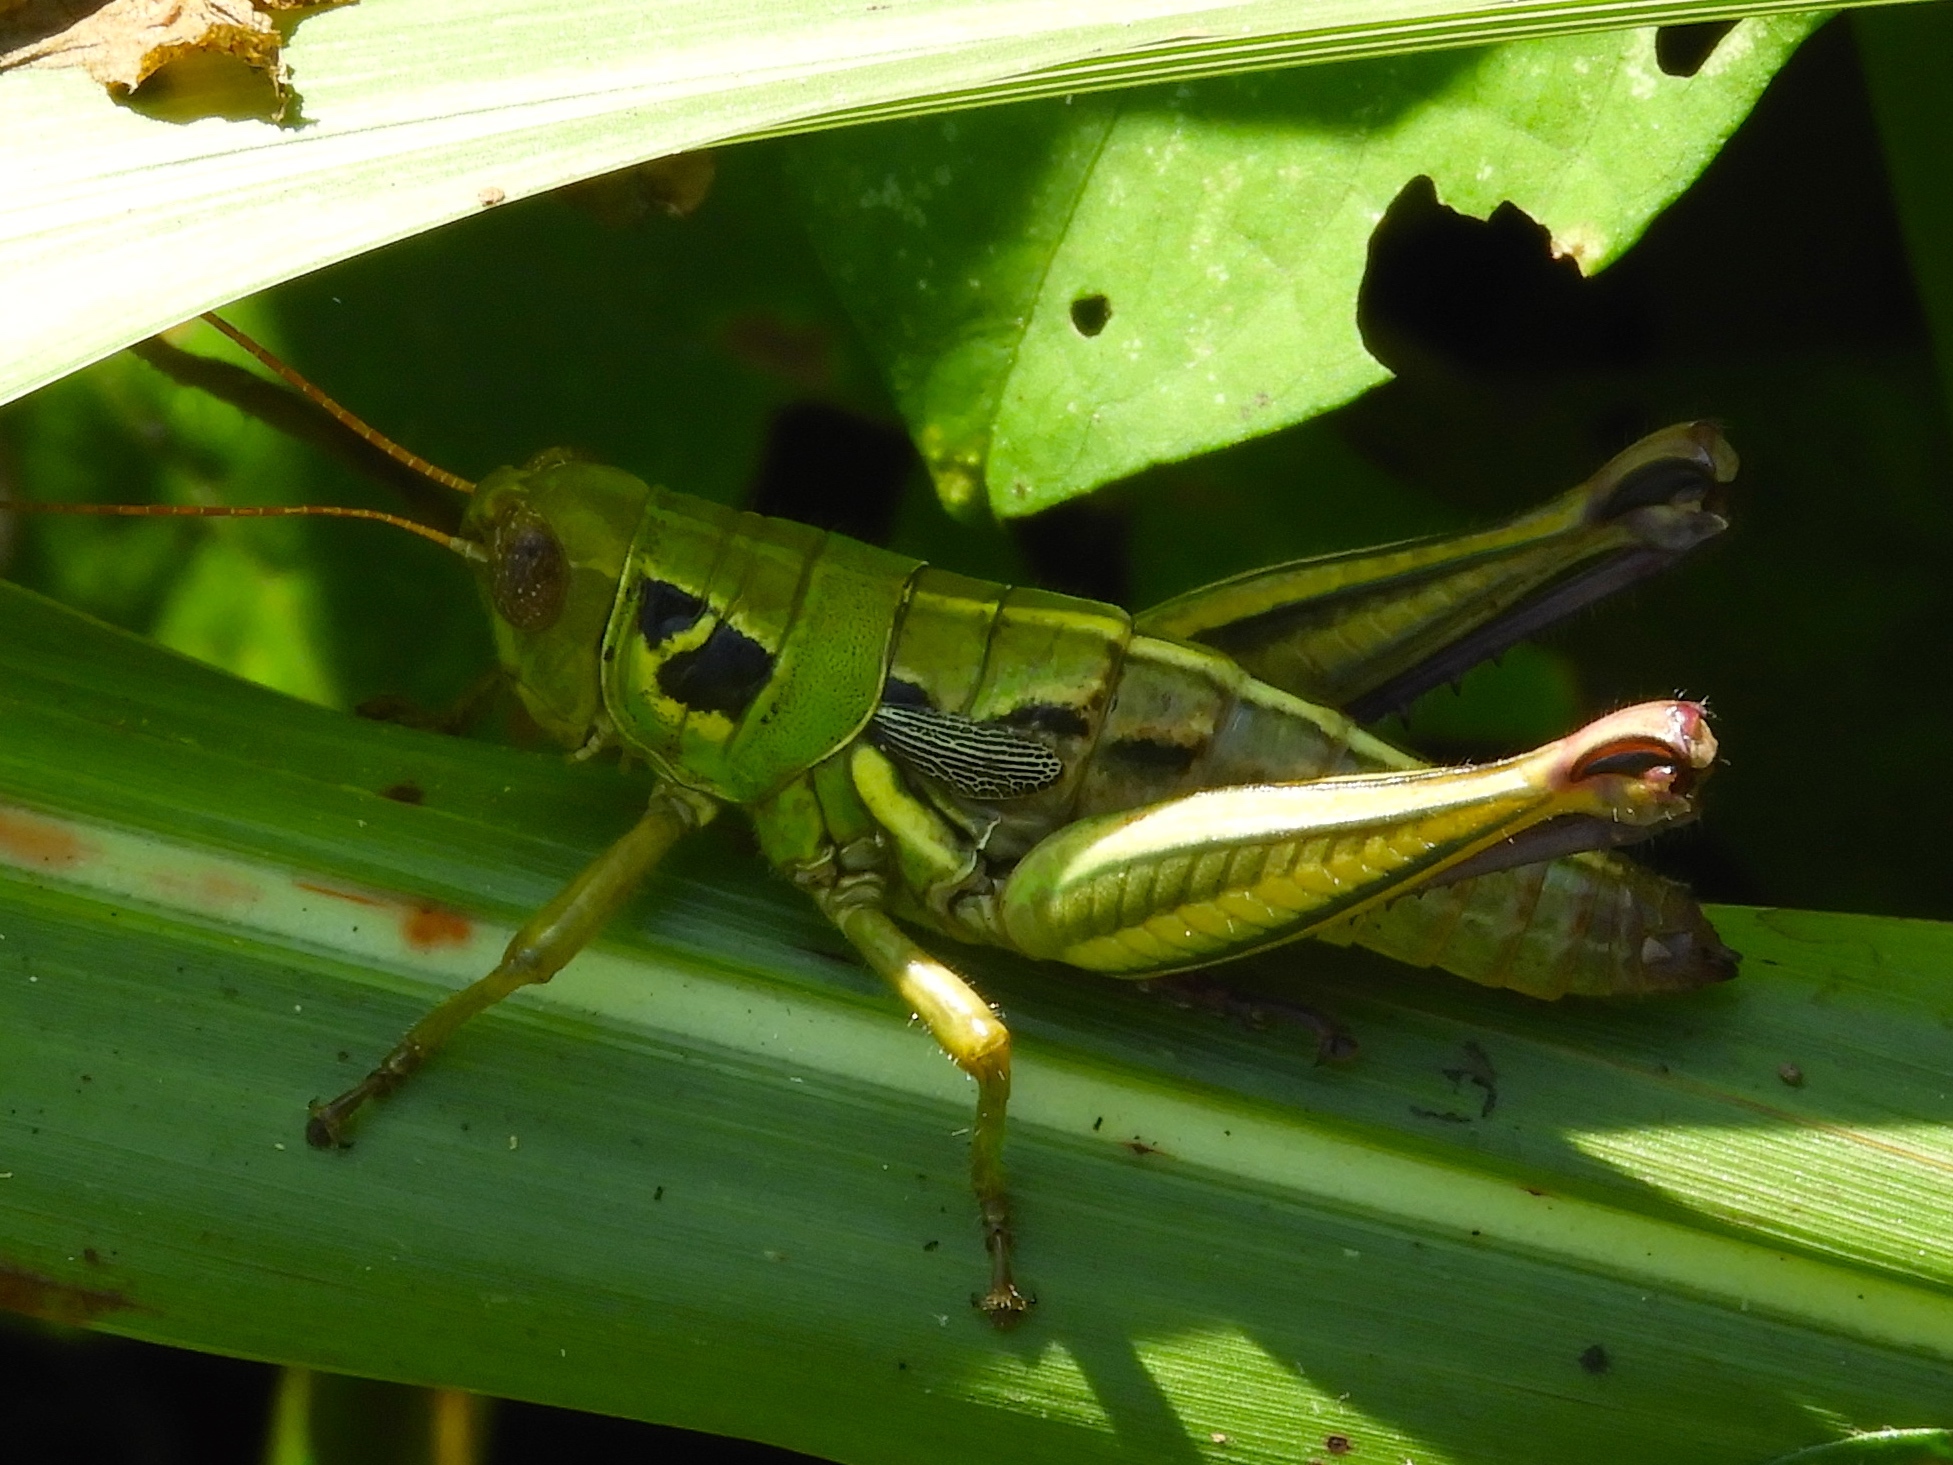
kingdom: Animalia
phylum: Arthropoda
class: Insecta
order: Orthoptera
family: Acrididae
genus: Barytettix
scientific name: Barytettix
